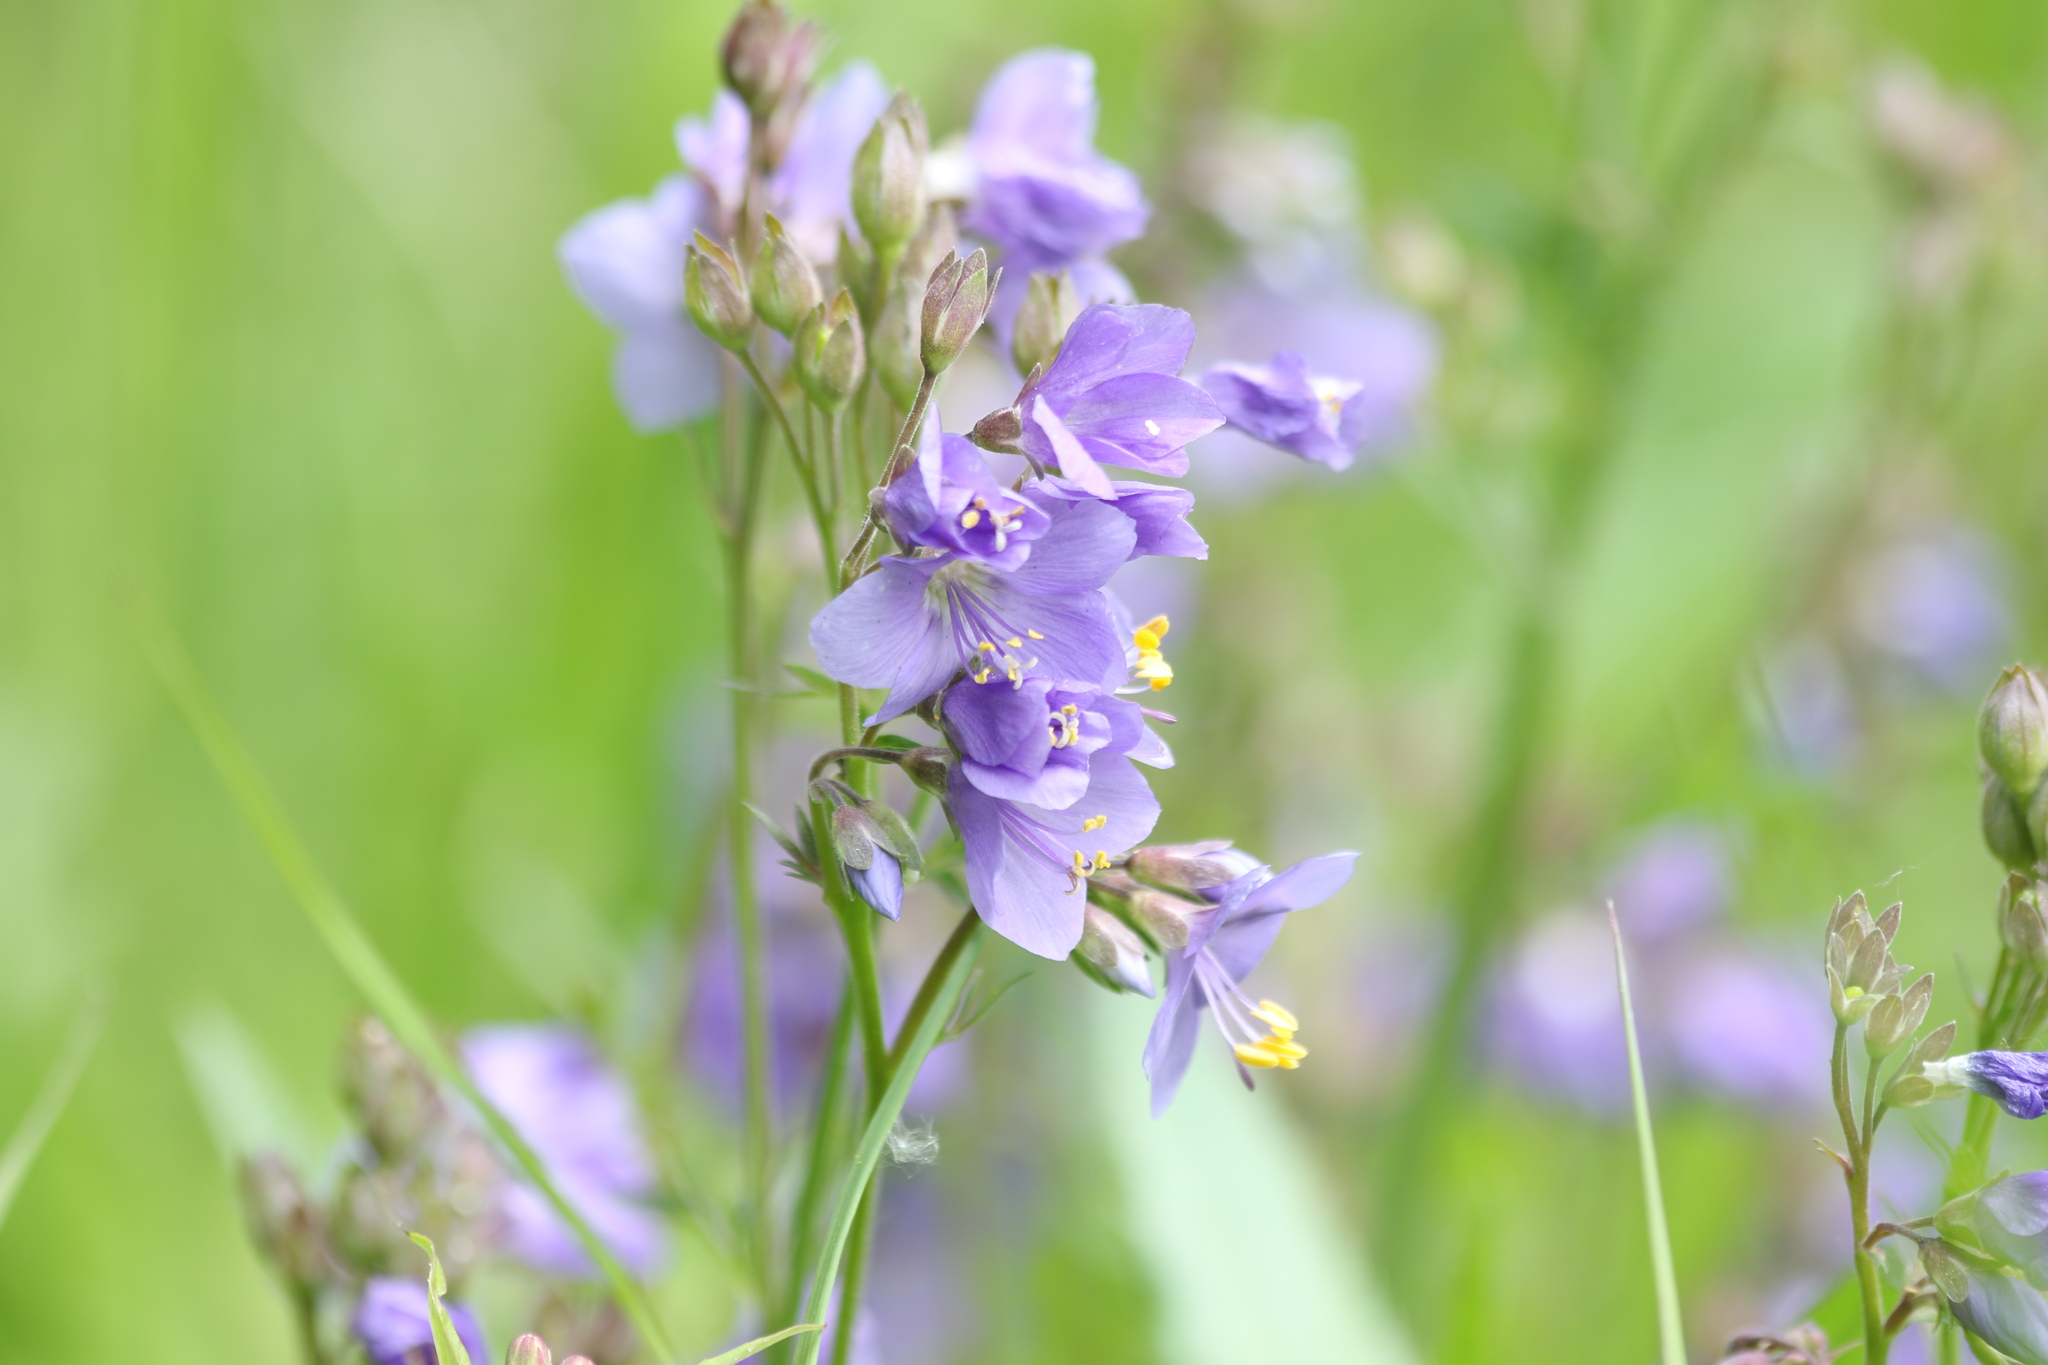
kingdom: Plantae
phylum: Tracheophyta
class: Magnoliopsida
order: Ericales
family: Polemoniaceae
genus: Polemonium
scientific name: Polemonium caeruleum
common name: Jacob's-ladder
